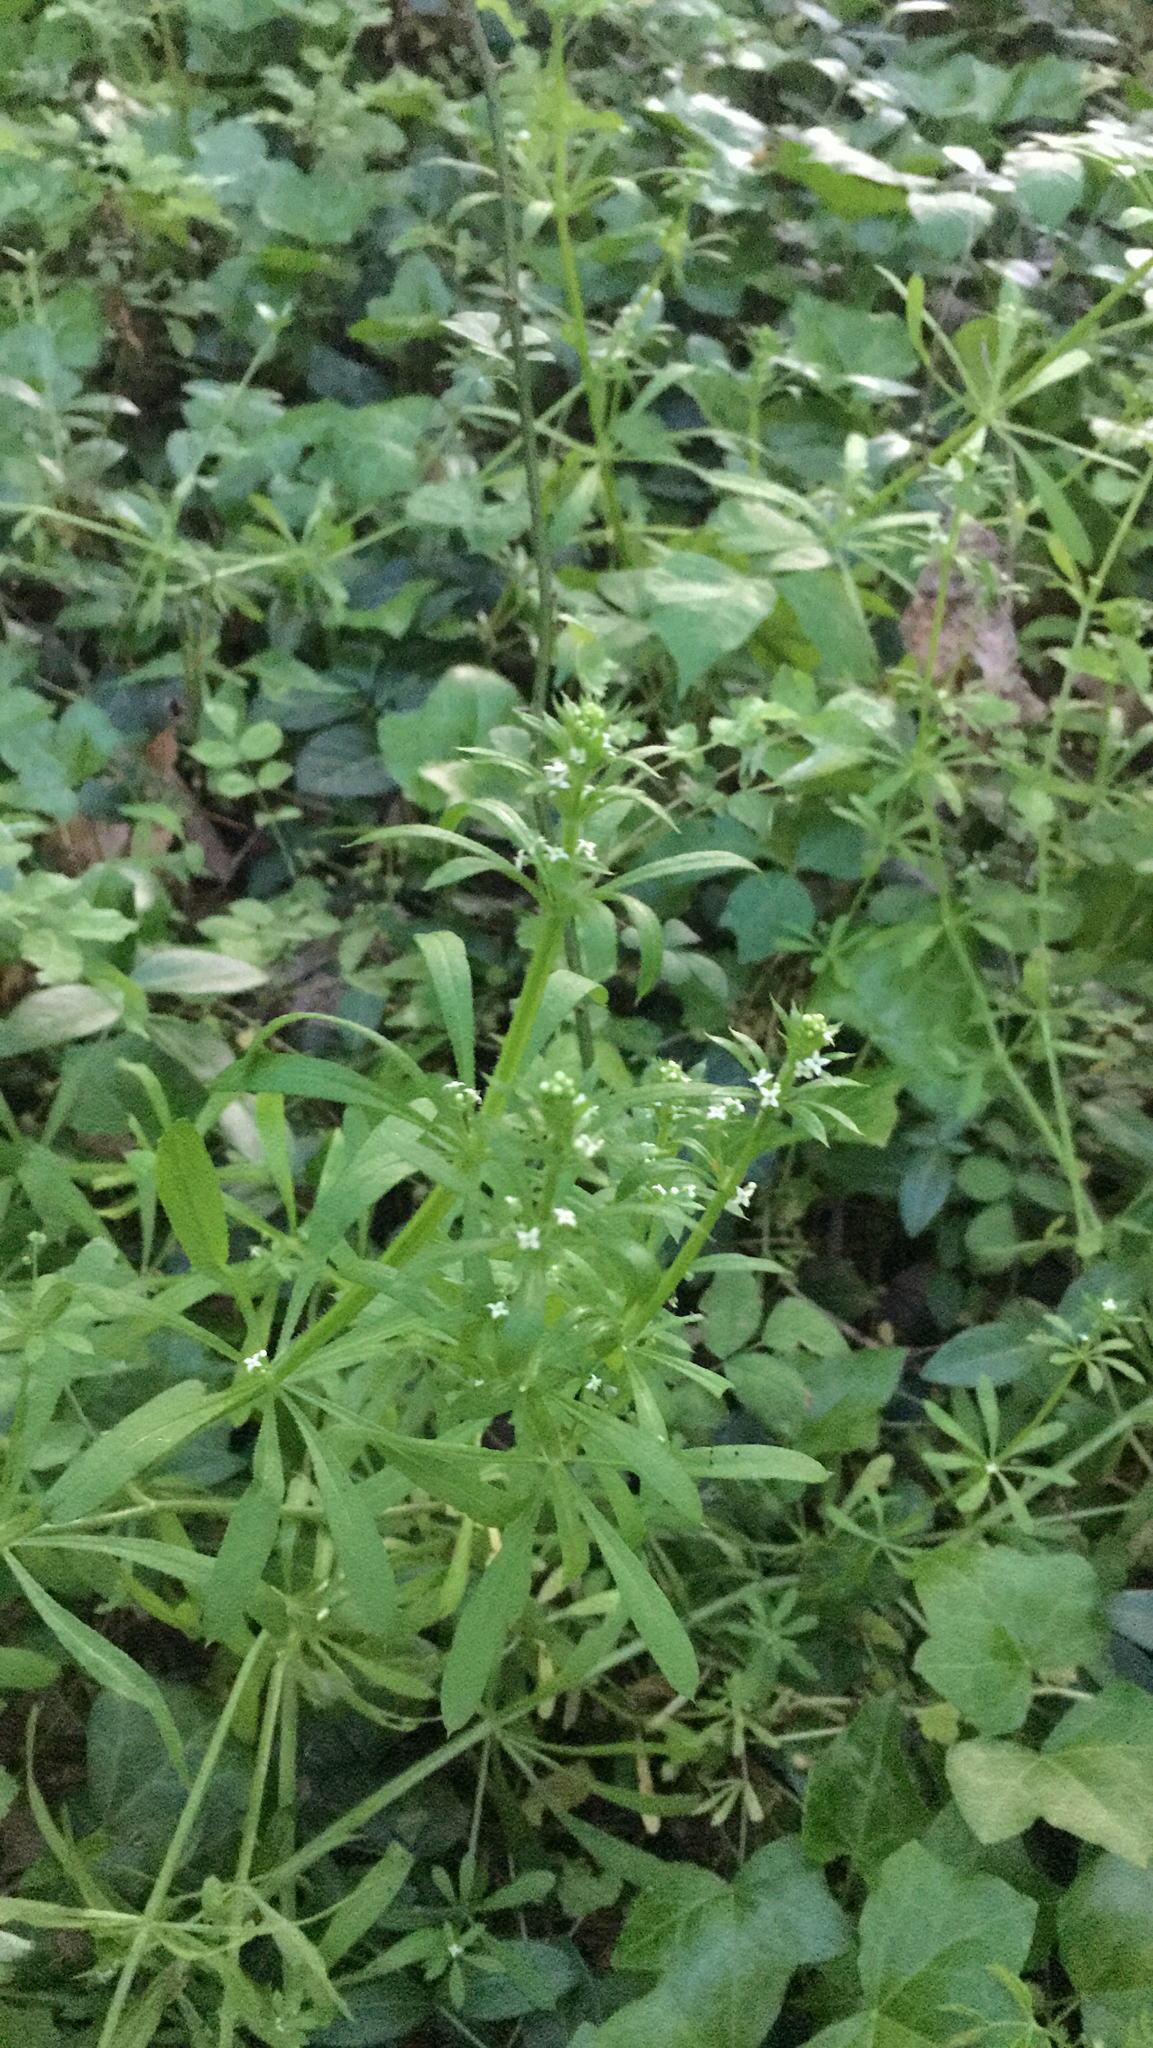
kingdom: Plantae
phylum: Tracheophyta
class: Magnoliopsida
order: Gentianales
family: Rubiaceae
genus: Galium
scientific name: Galium aparine
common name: Cleavers
